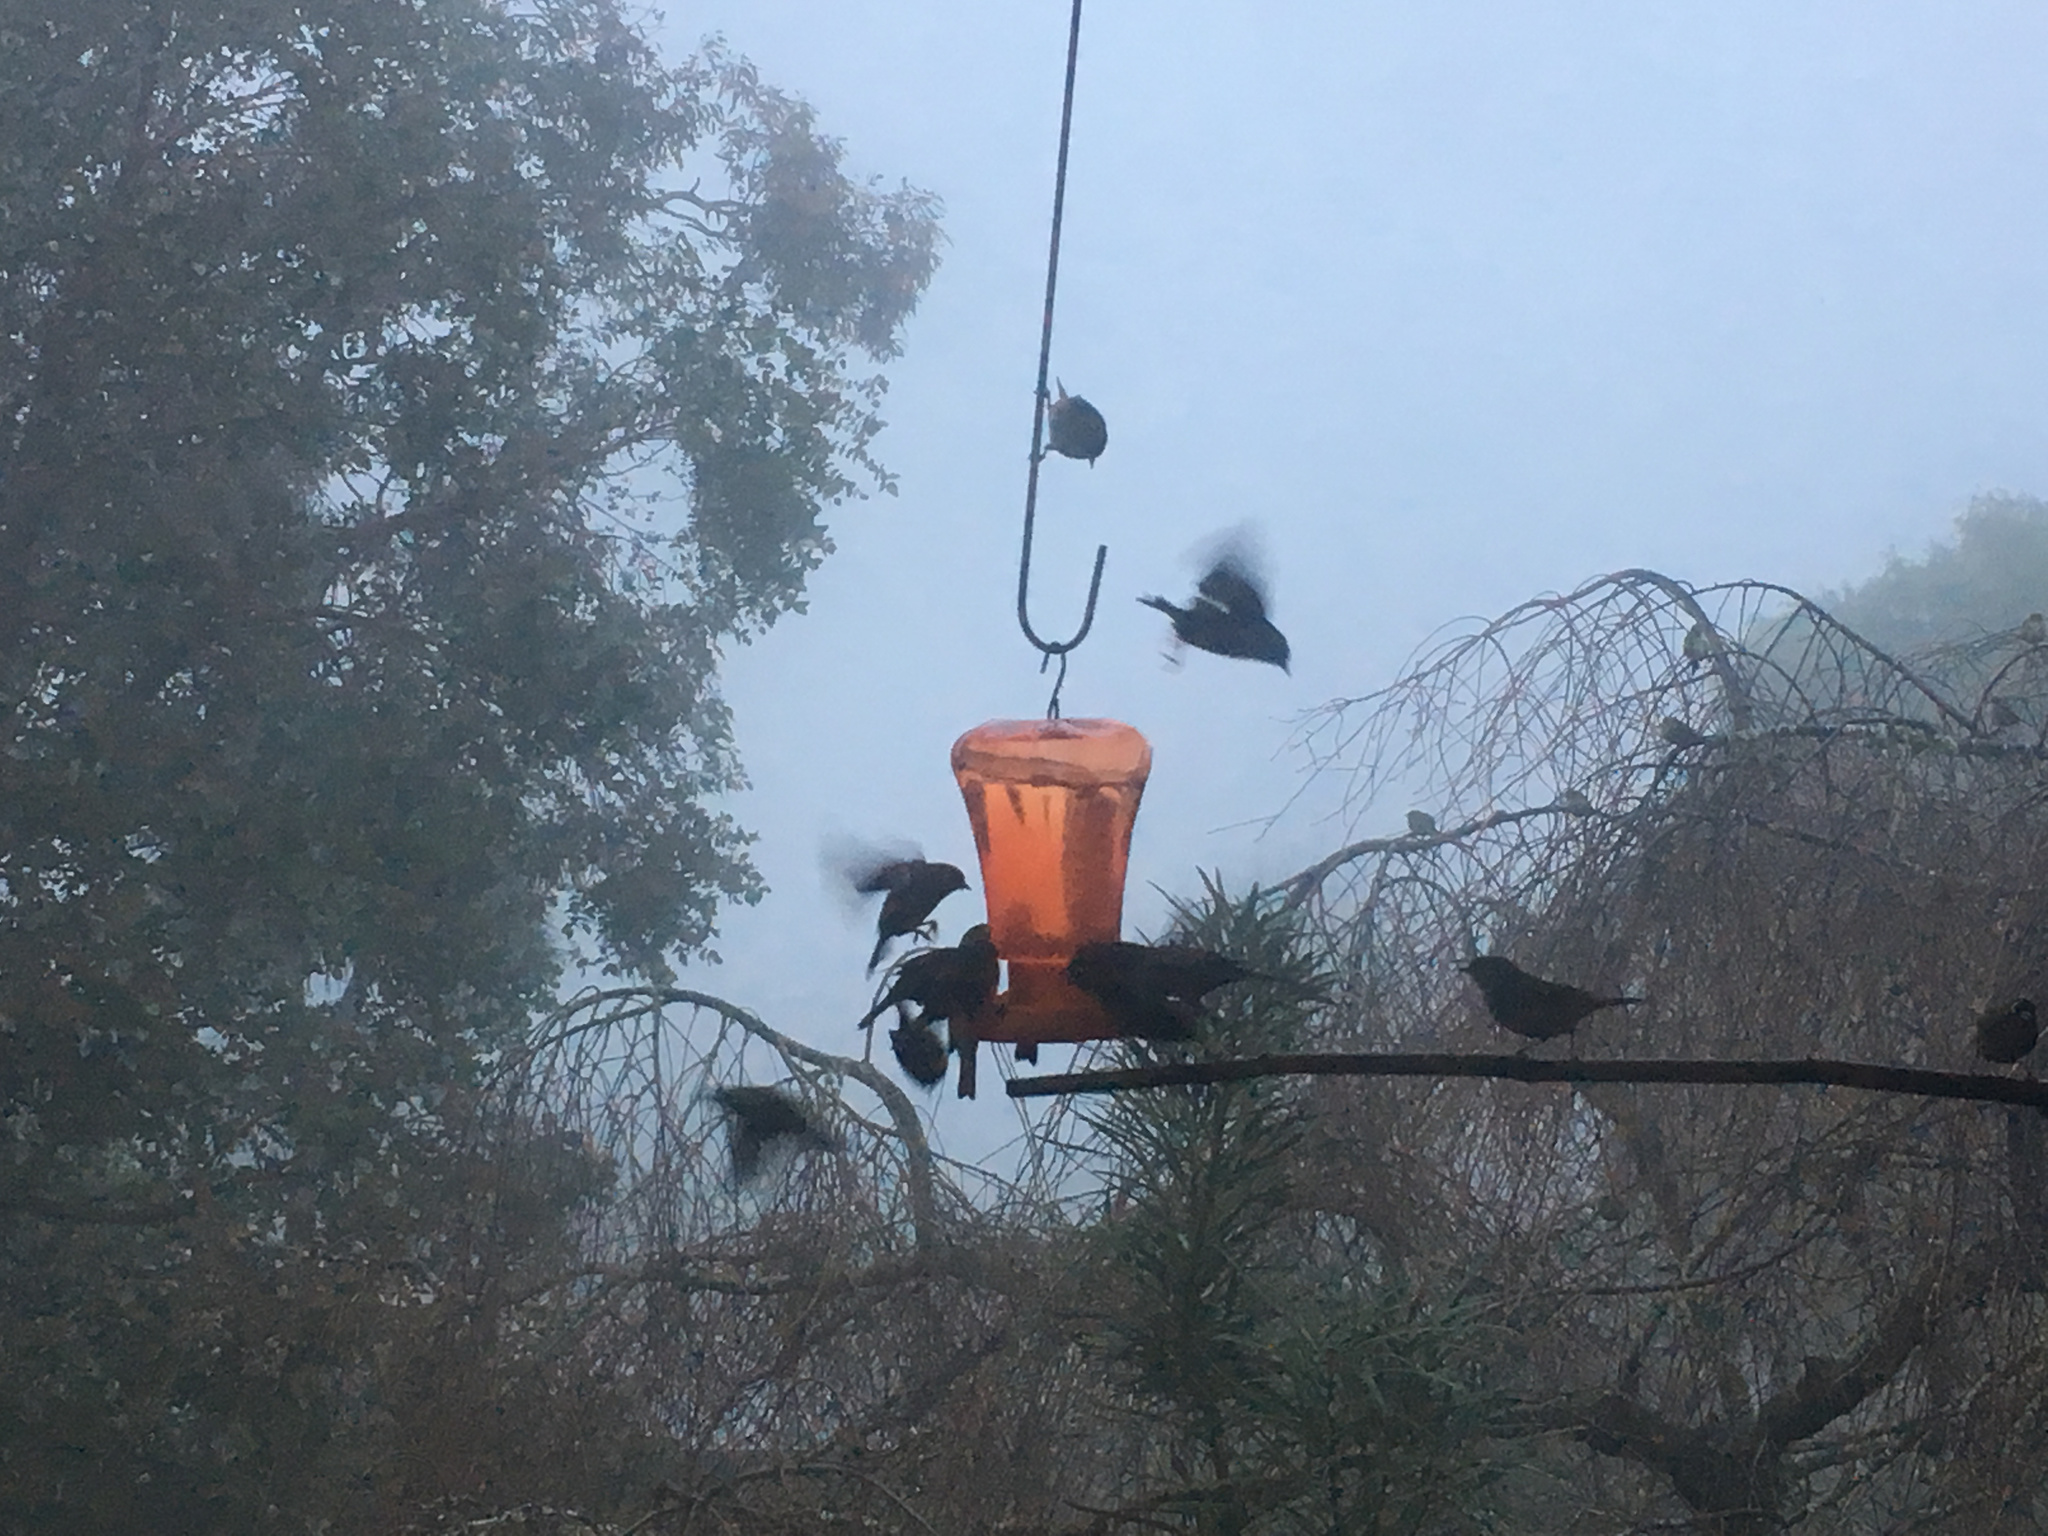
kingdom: Animalia
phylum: Chordata
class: Aves
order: Passeriformes
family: Zosteropidae
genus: Zosterops
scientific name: Zosterops lateralis
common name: Silvereye
